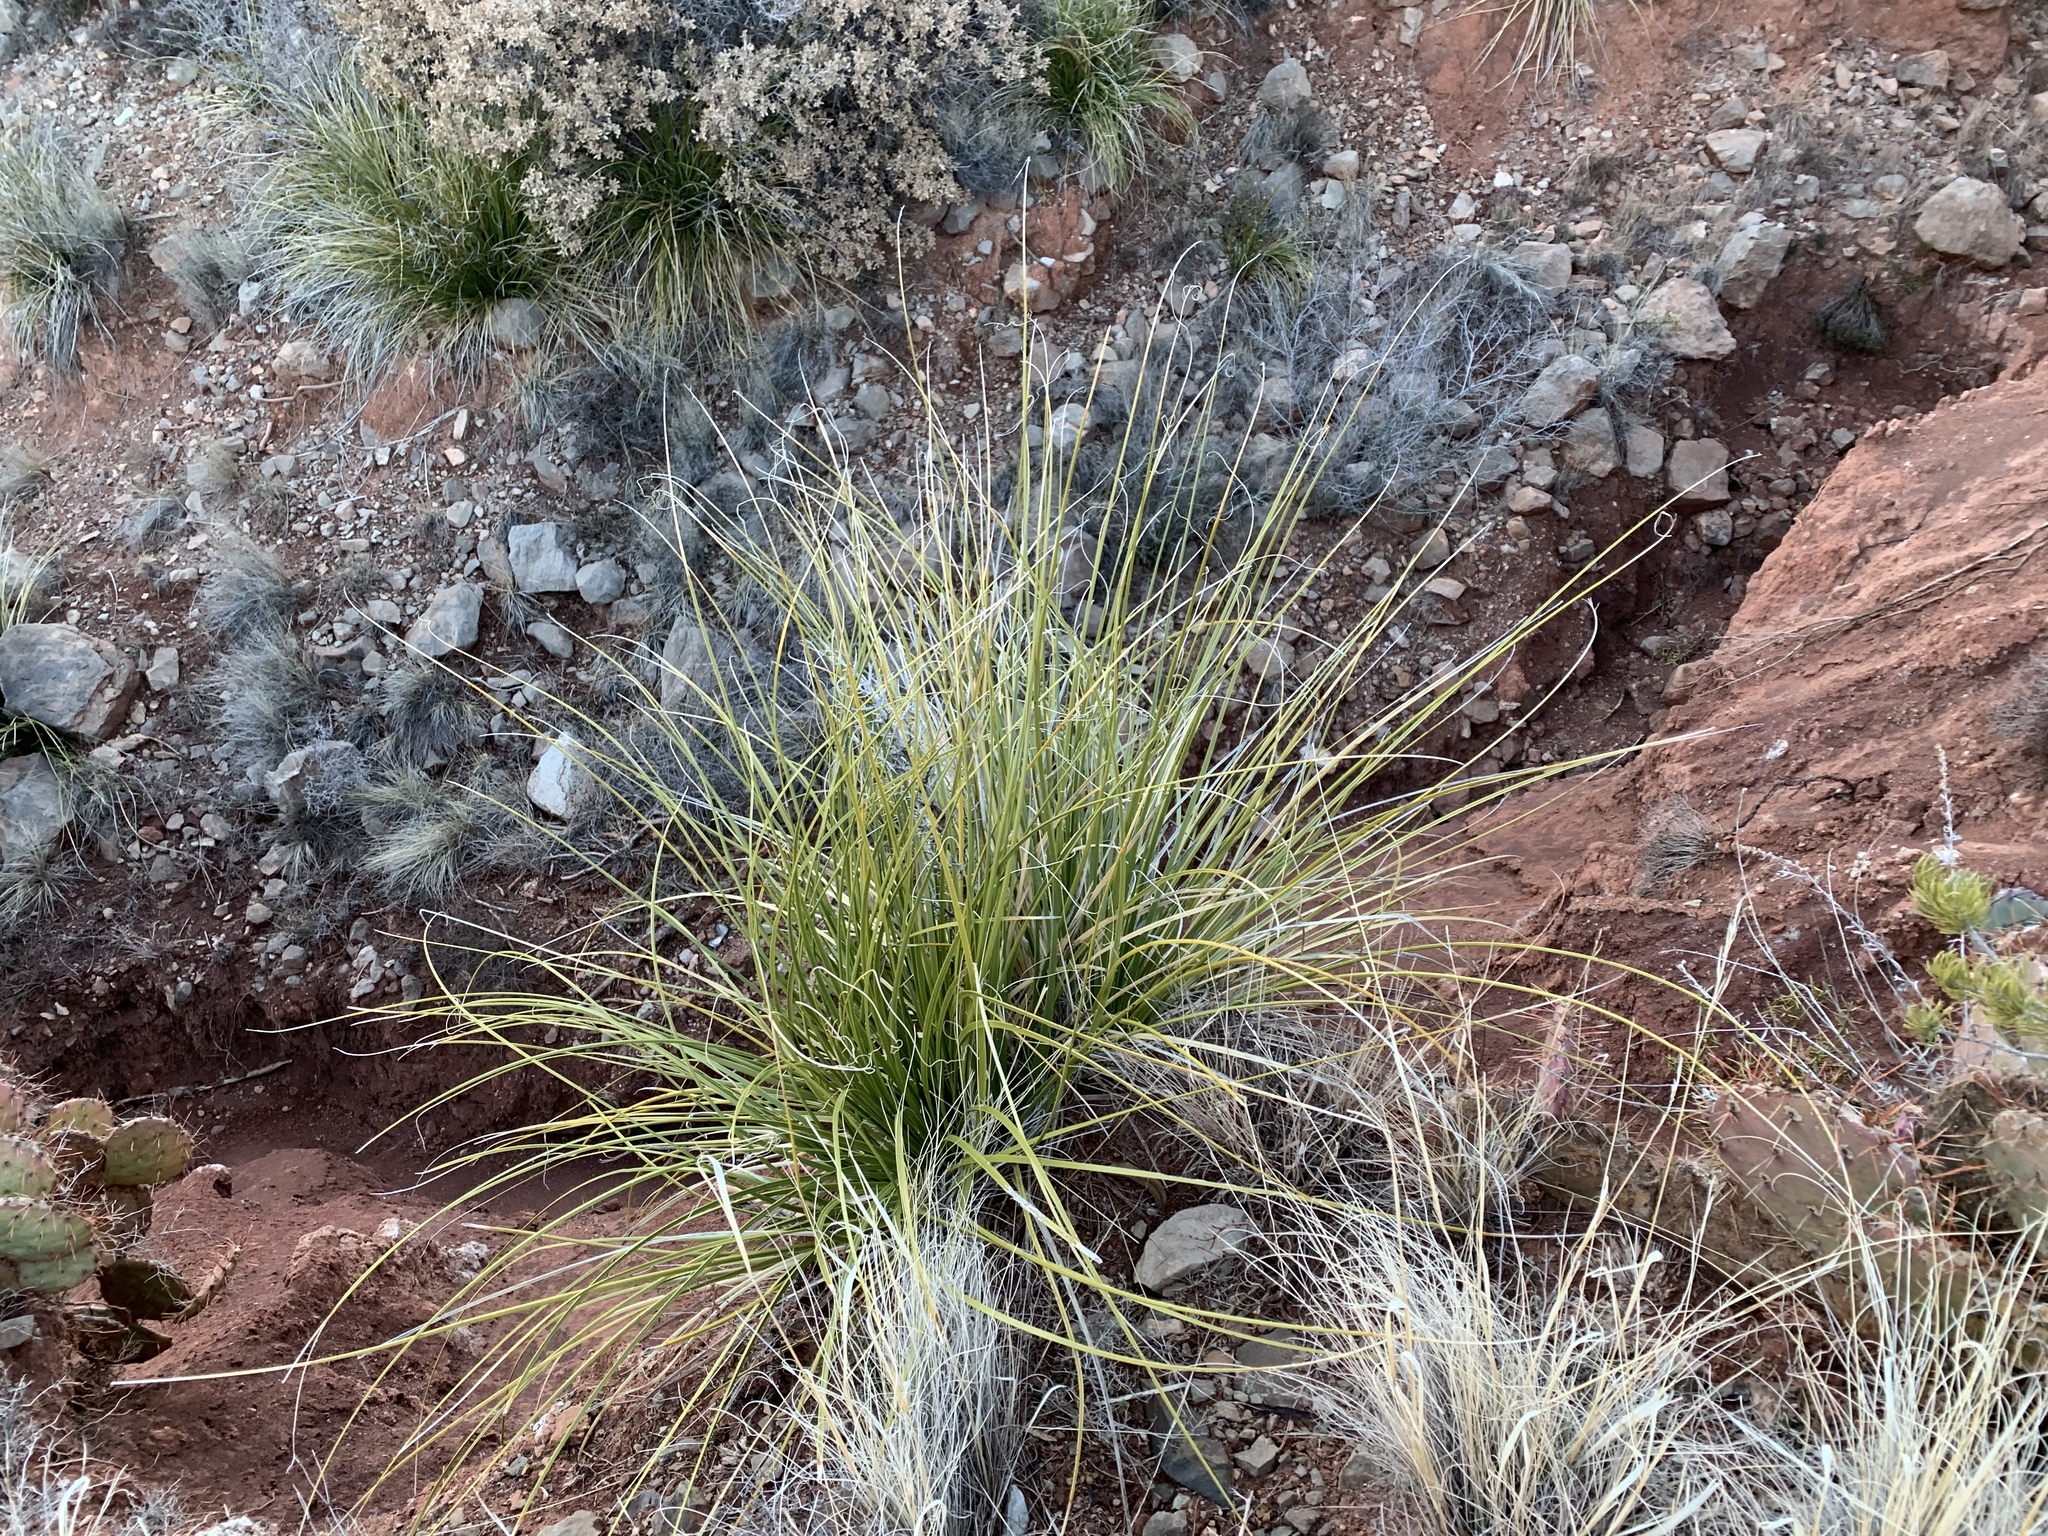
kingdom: Plantae
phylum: Tracheophyta
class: Liliopsida
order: Asparagales
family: Asparagaceae
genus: Nolina
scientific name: Nolina texana
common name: Texas sacahuiste
